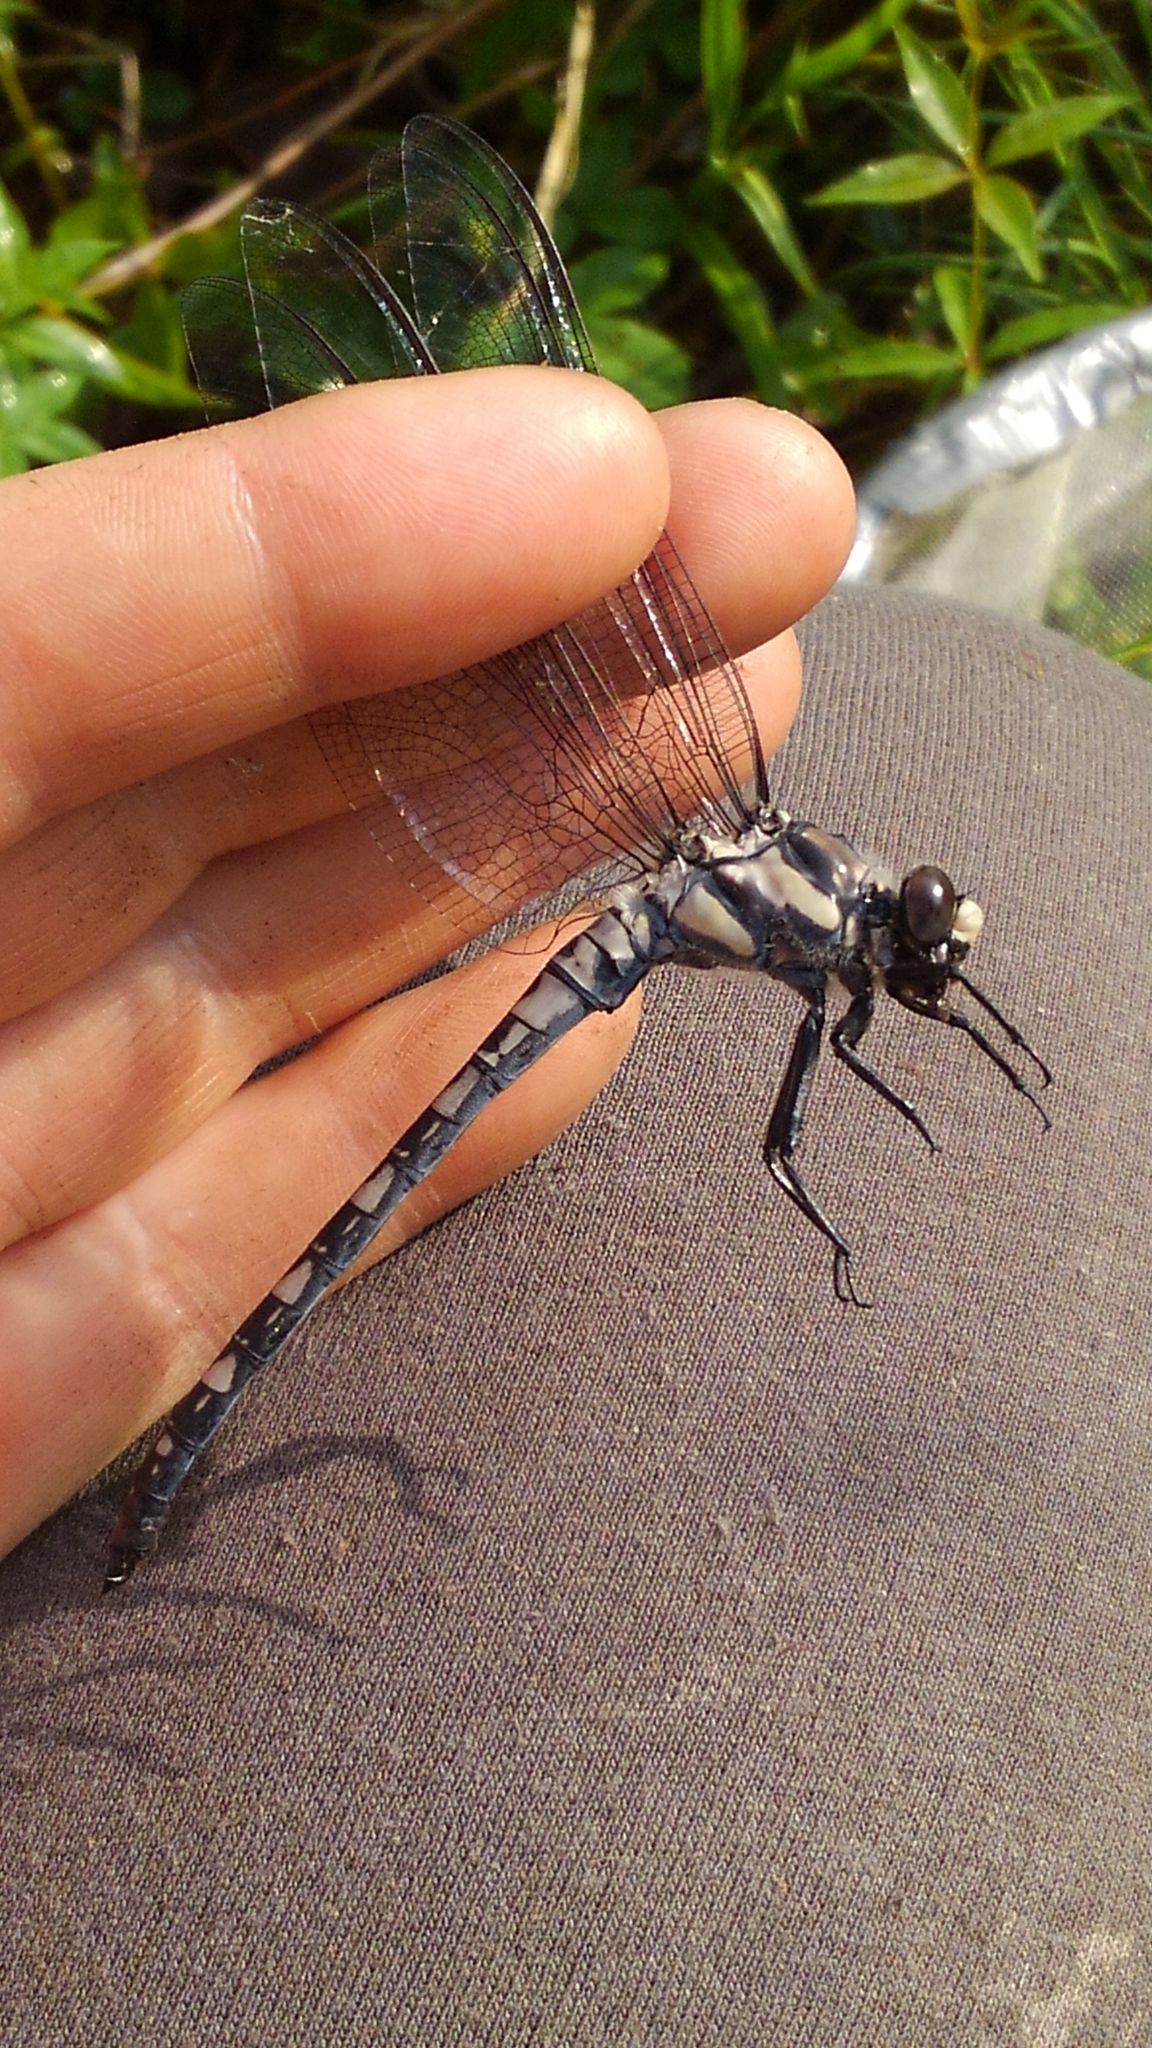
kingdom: Animalia
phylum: Arthropoda
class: Insecta
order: Odonata
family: Petaluridae
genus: Tachopteryx
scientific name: Tachopteryx thoreyi
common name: Gray petaltail
